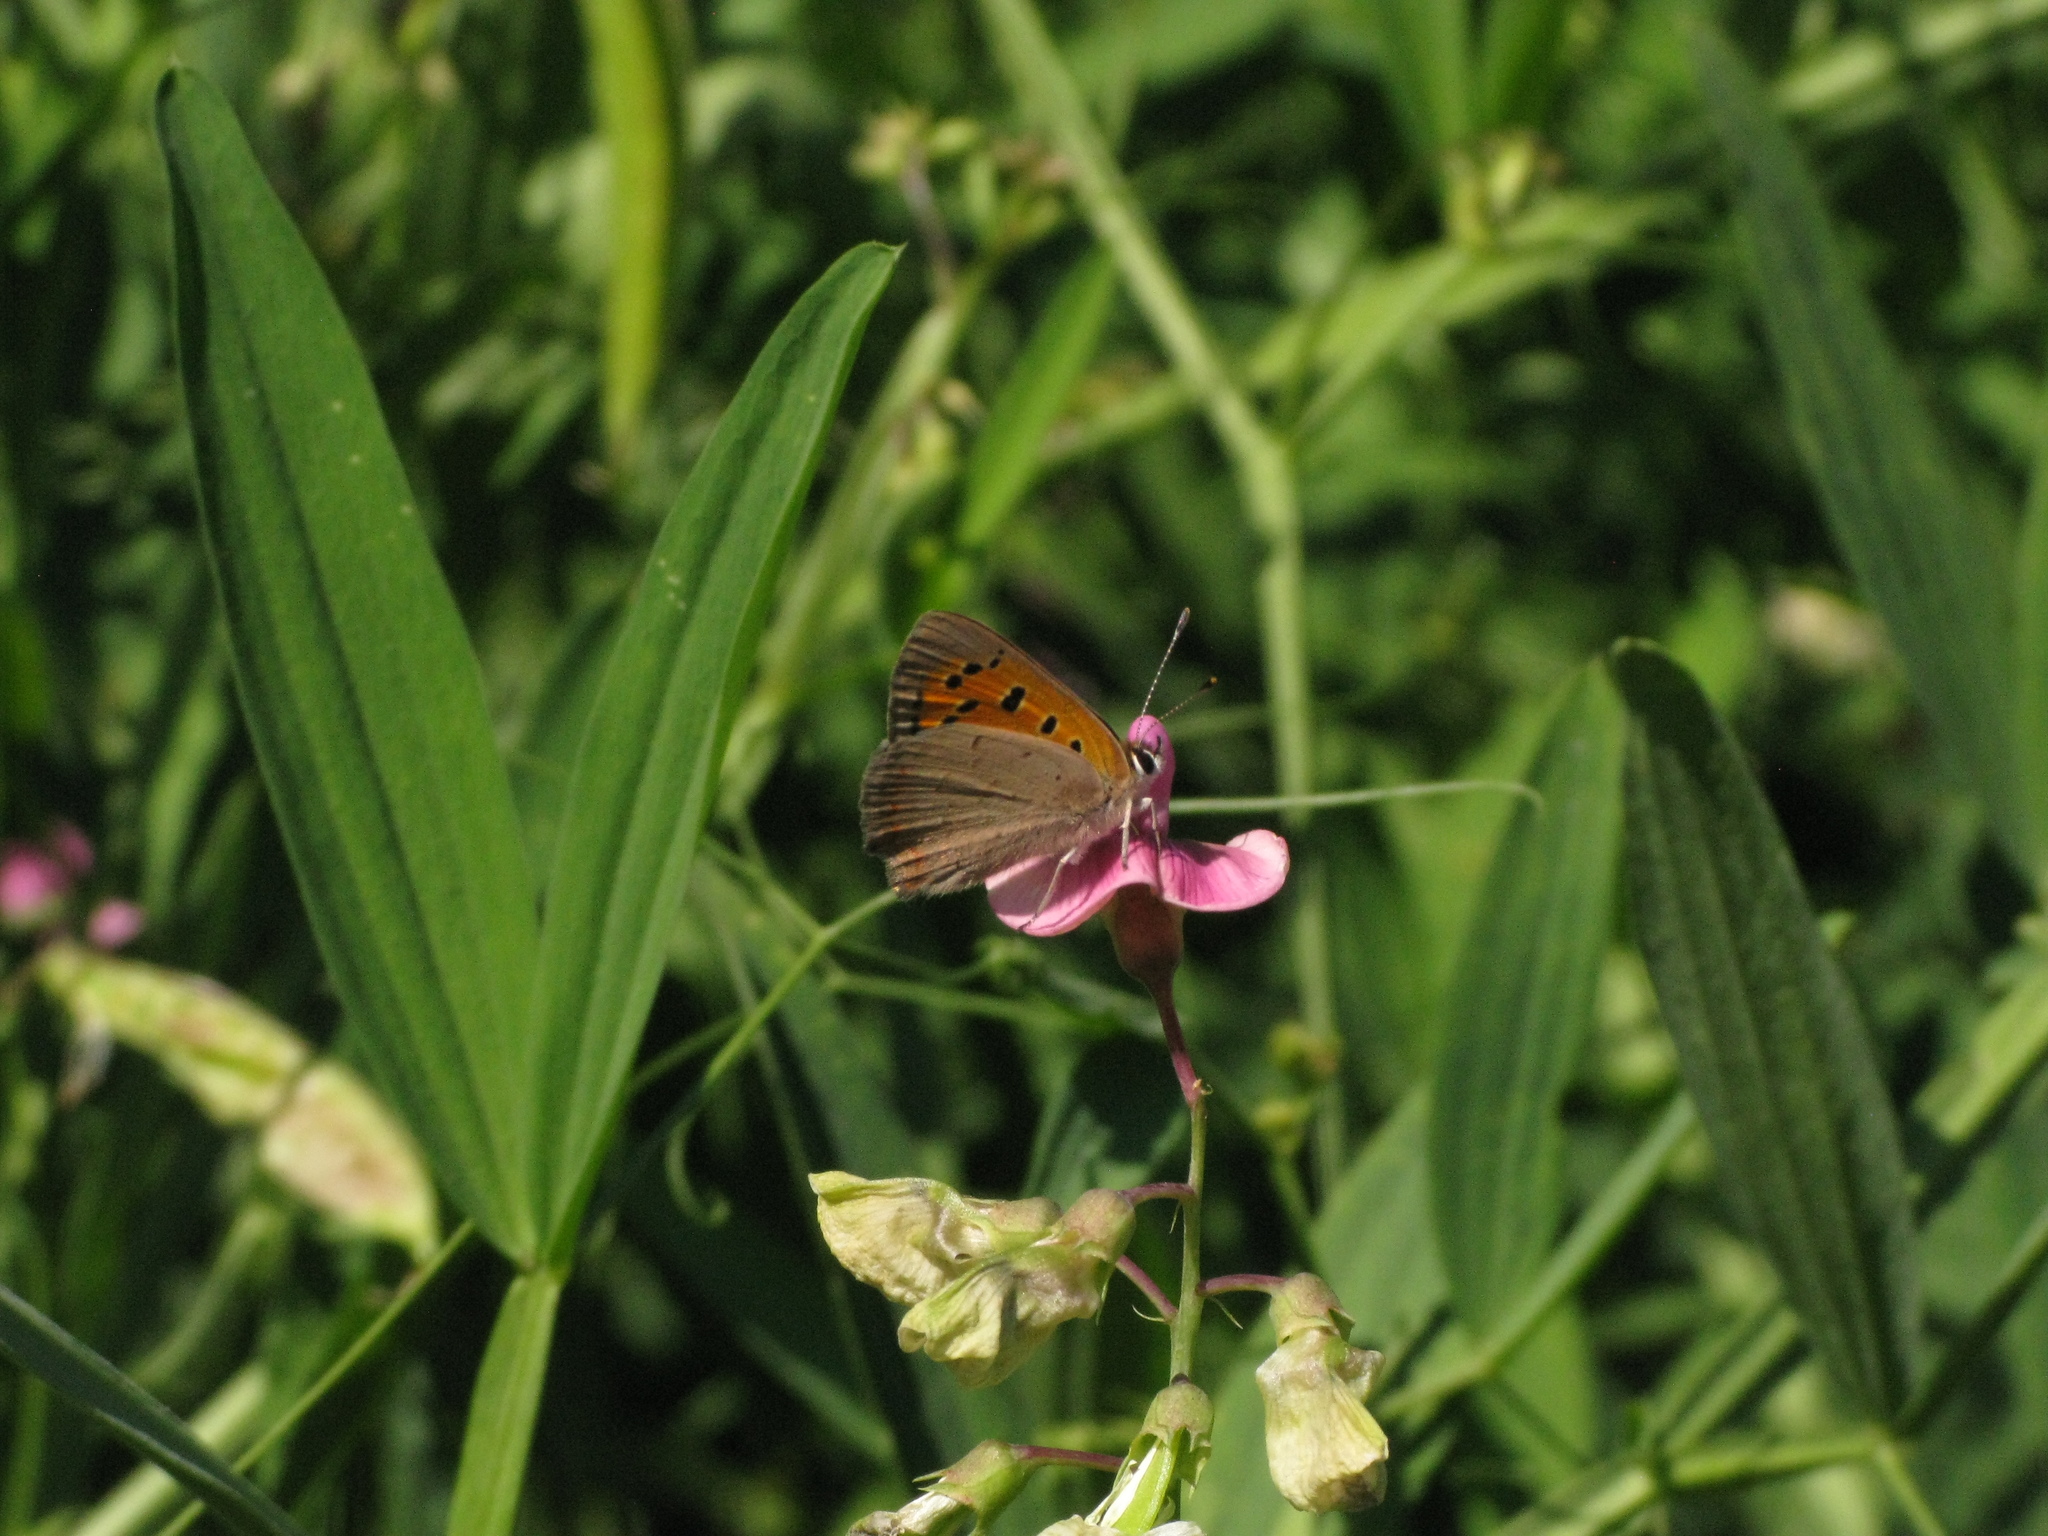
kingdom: Animalia
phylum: Arthropoda
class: Insecta
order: Lepidoptera
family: Lycaenidae
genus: Lycaena
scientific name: Lycaena phlaeas
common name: Small copper
